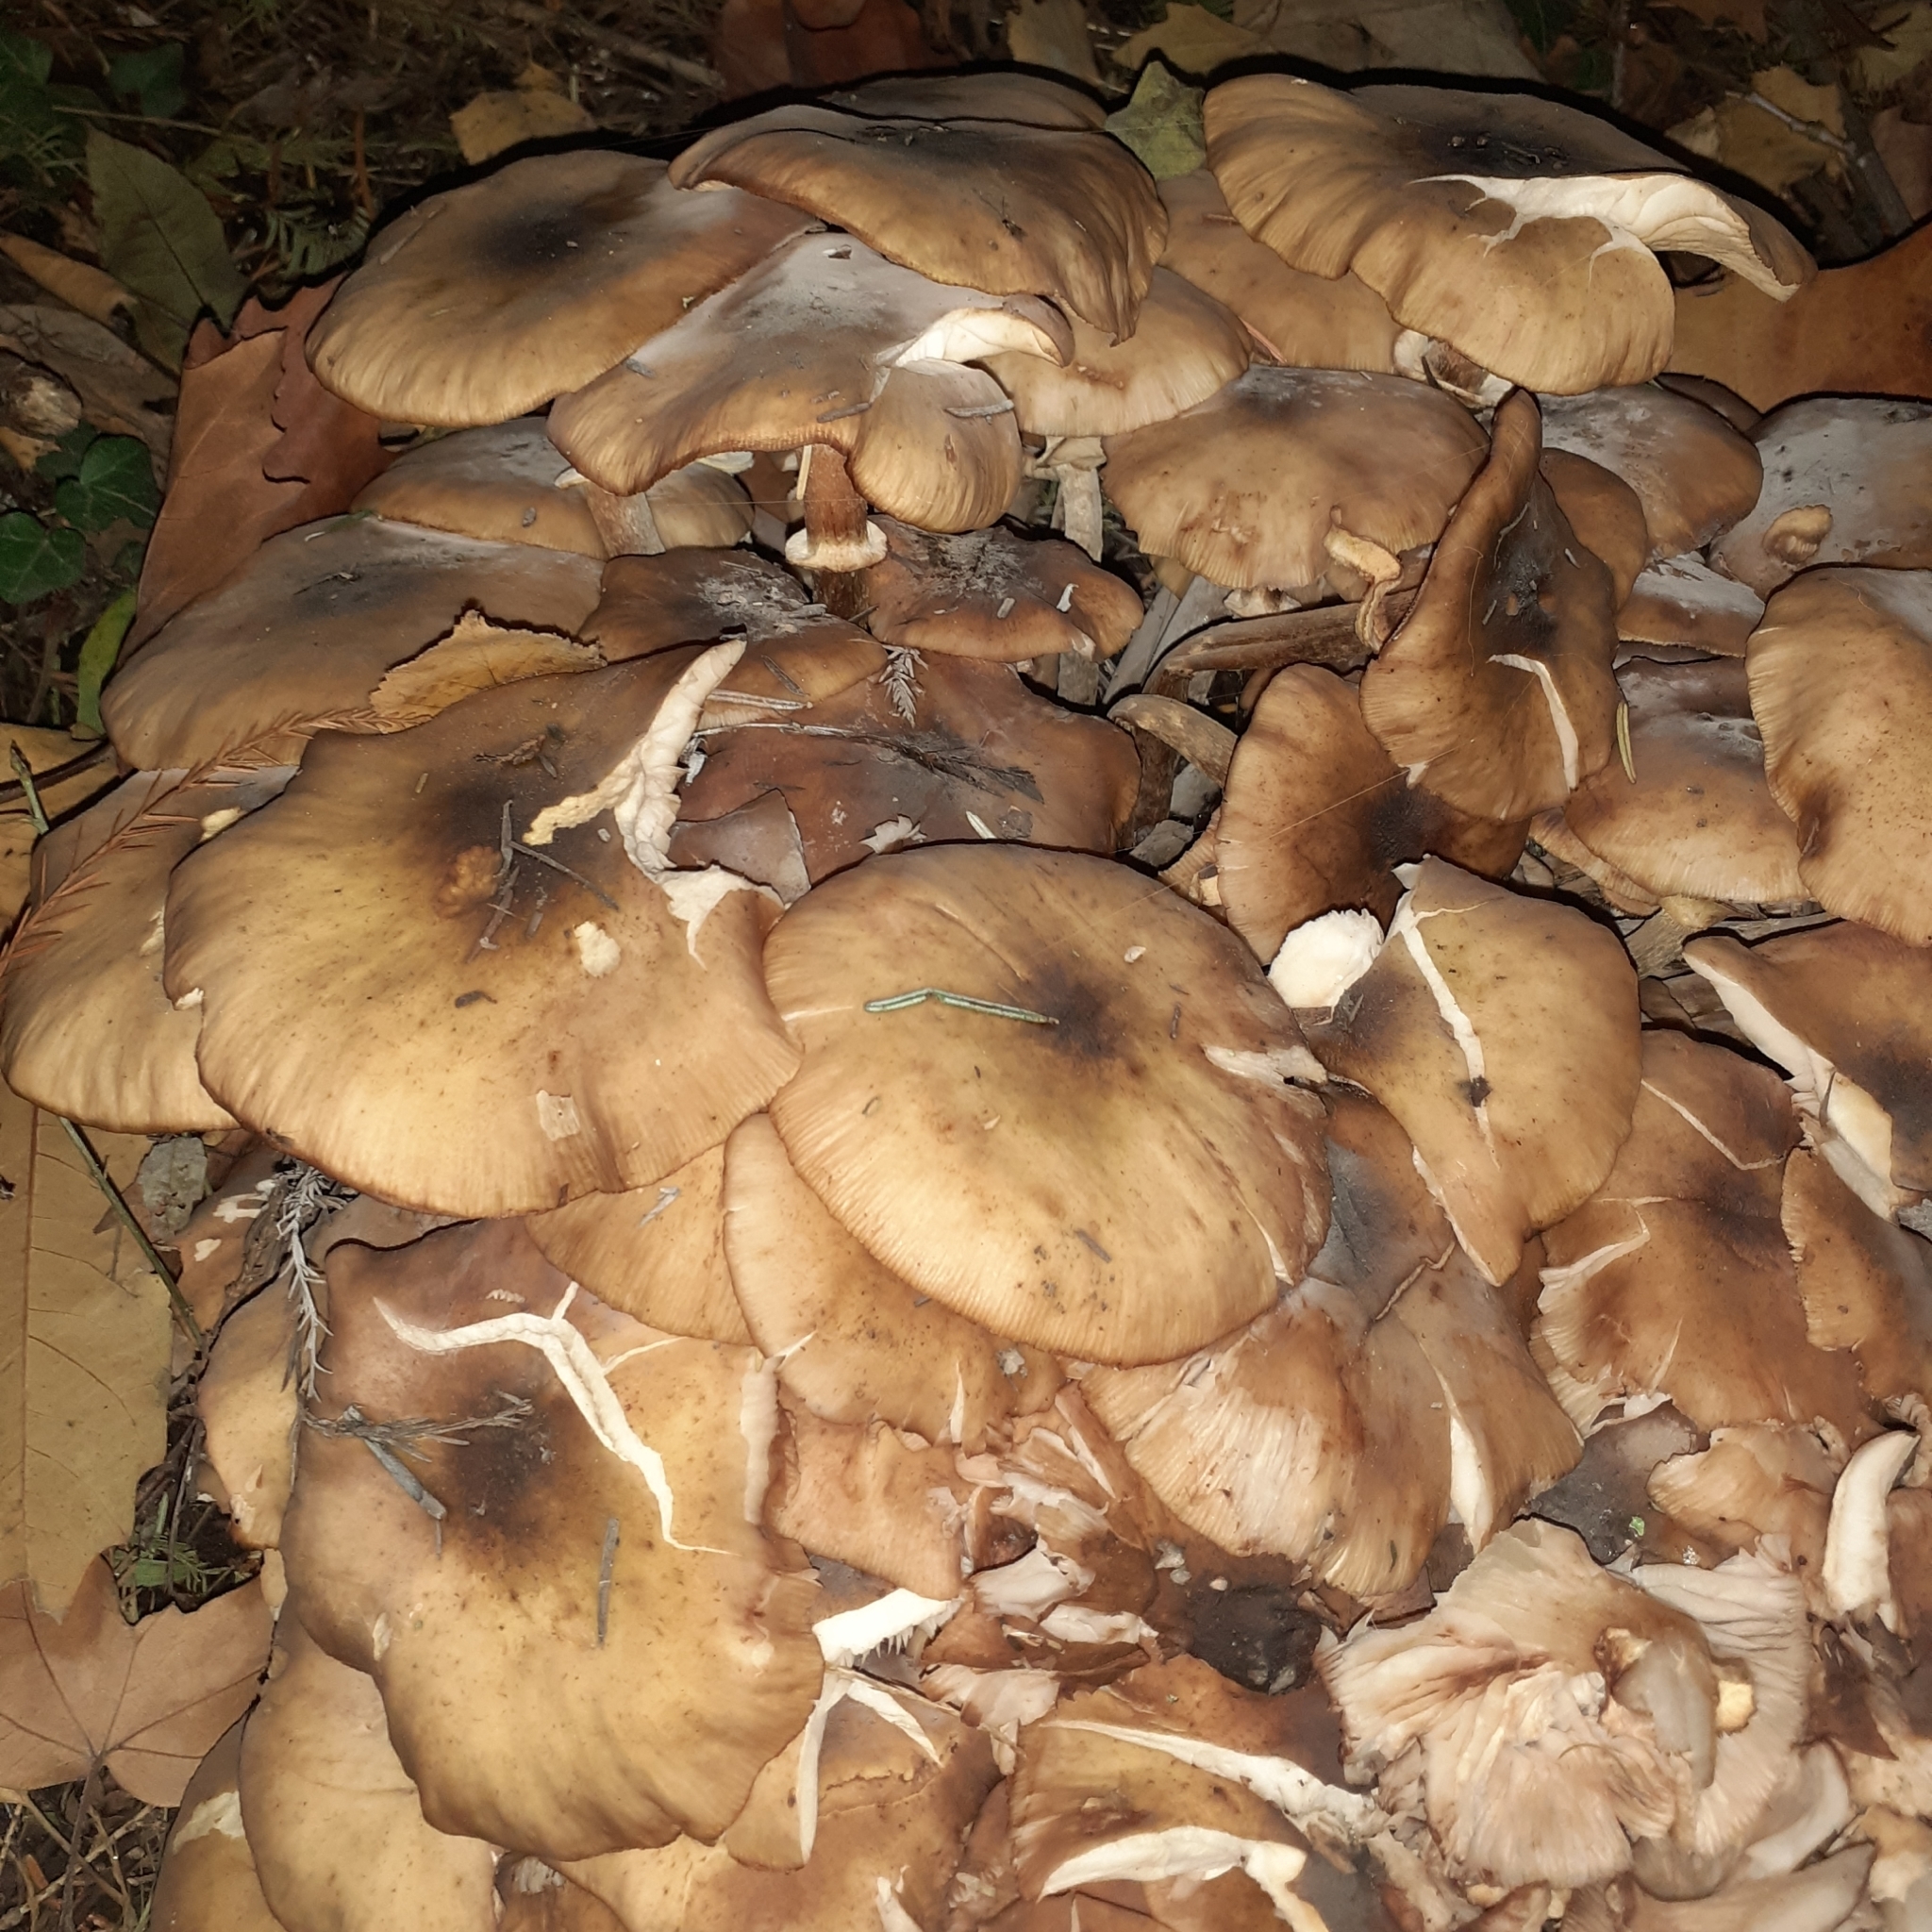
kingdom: Fungi
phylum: Basidiomycota
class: Agaricomycetes
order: Agaricales
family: Physalacriaceae
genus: Armillaria
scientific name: Armillaria mellea
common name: Honey fungus
